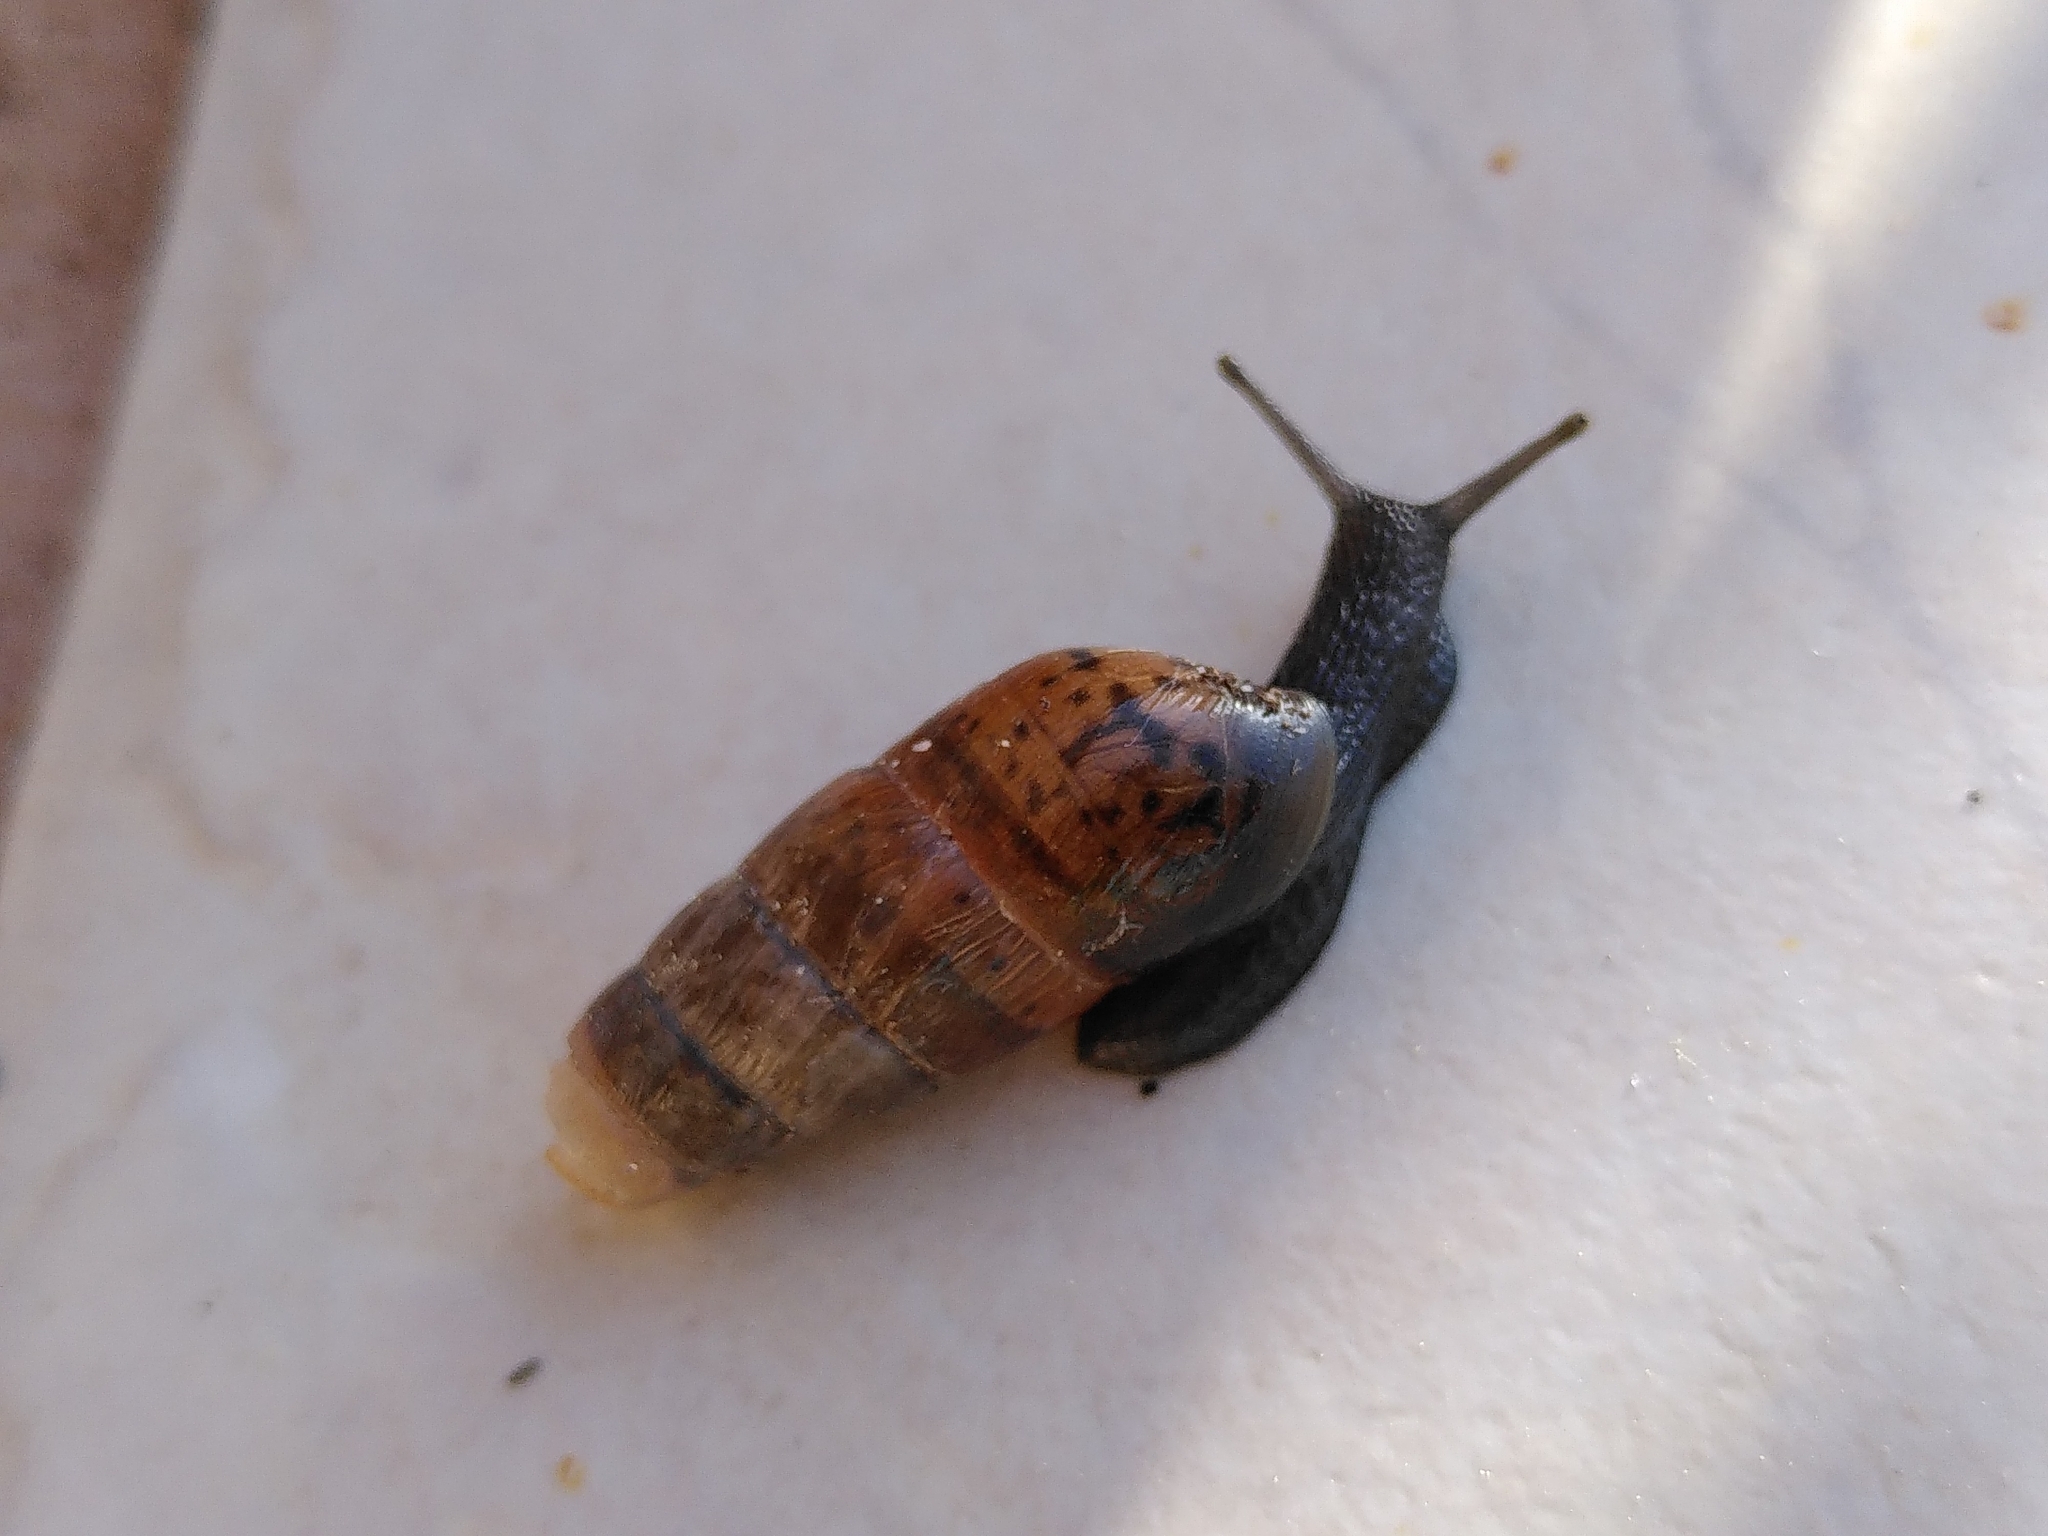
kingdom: Animalia
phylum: Mollusca
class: Gastropoda
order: Stylommatophora
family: Achatinidae
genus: Rumina
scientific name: Rumina decollata
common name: Decollate snail
